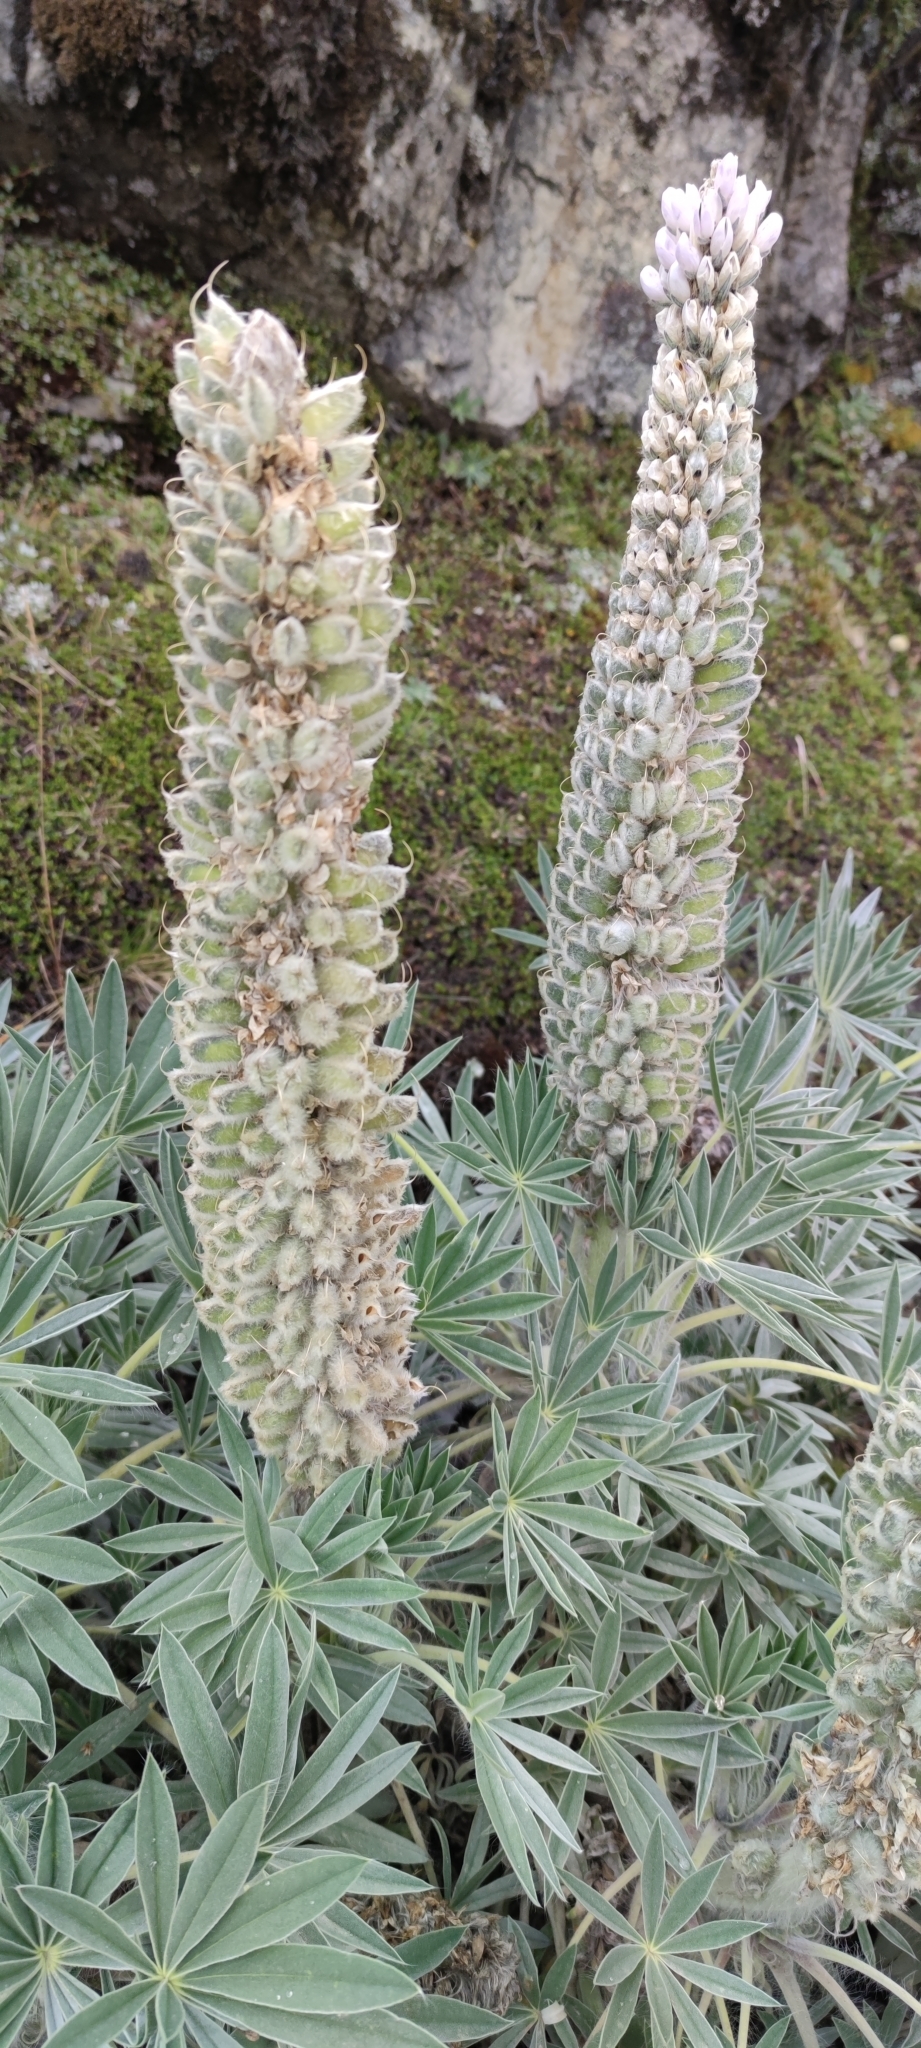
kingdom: Plantae
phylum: Tracheophyta
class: Magnoliopsida
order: Fabales
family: Fabaceae
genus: Lupinus
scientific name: Lupinus weberbaueri
